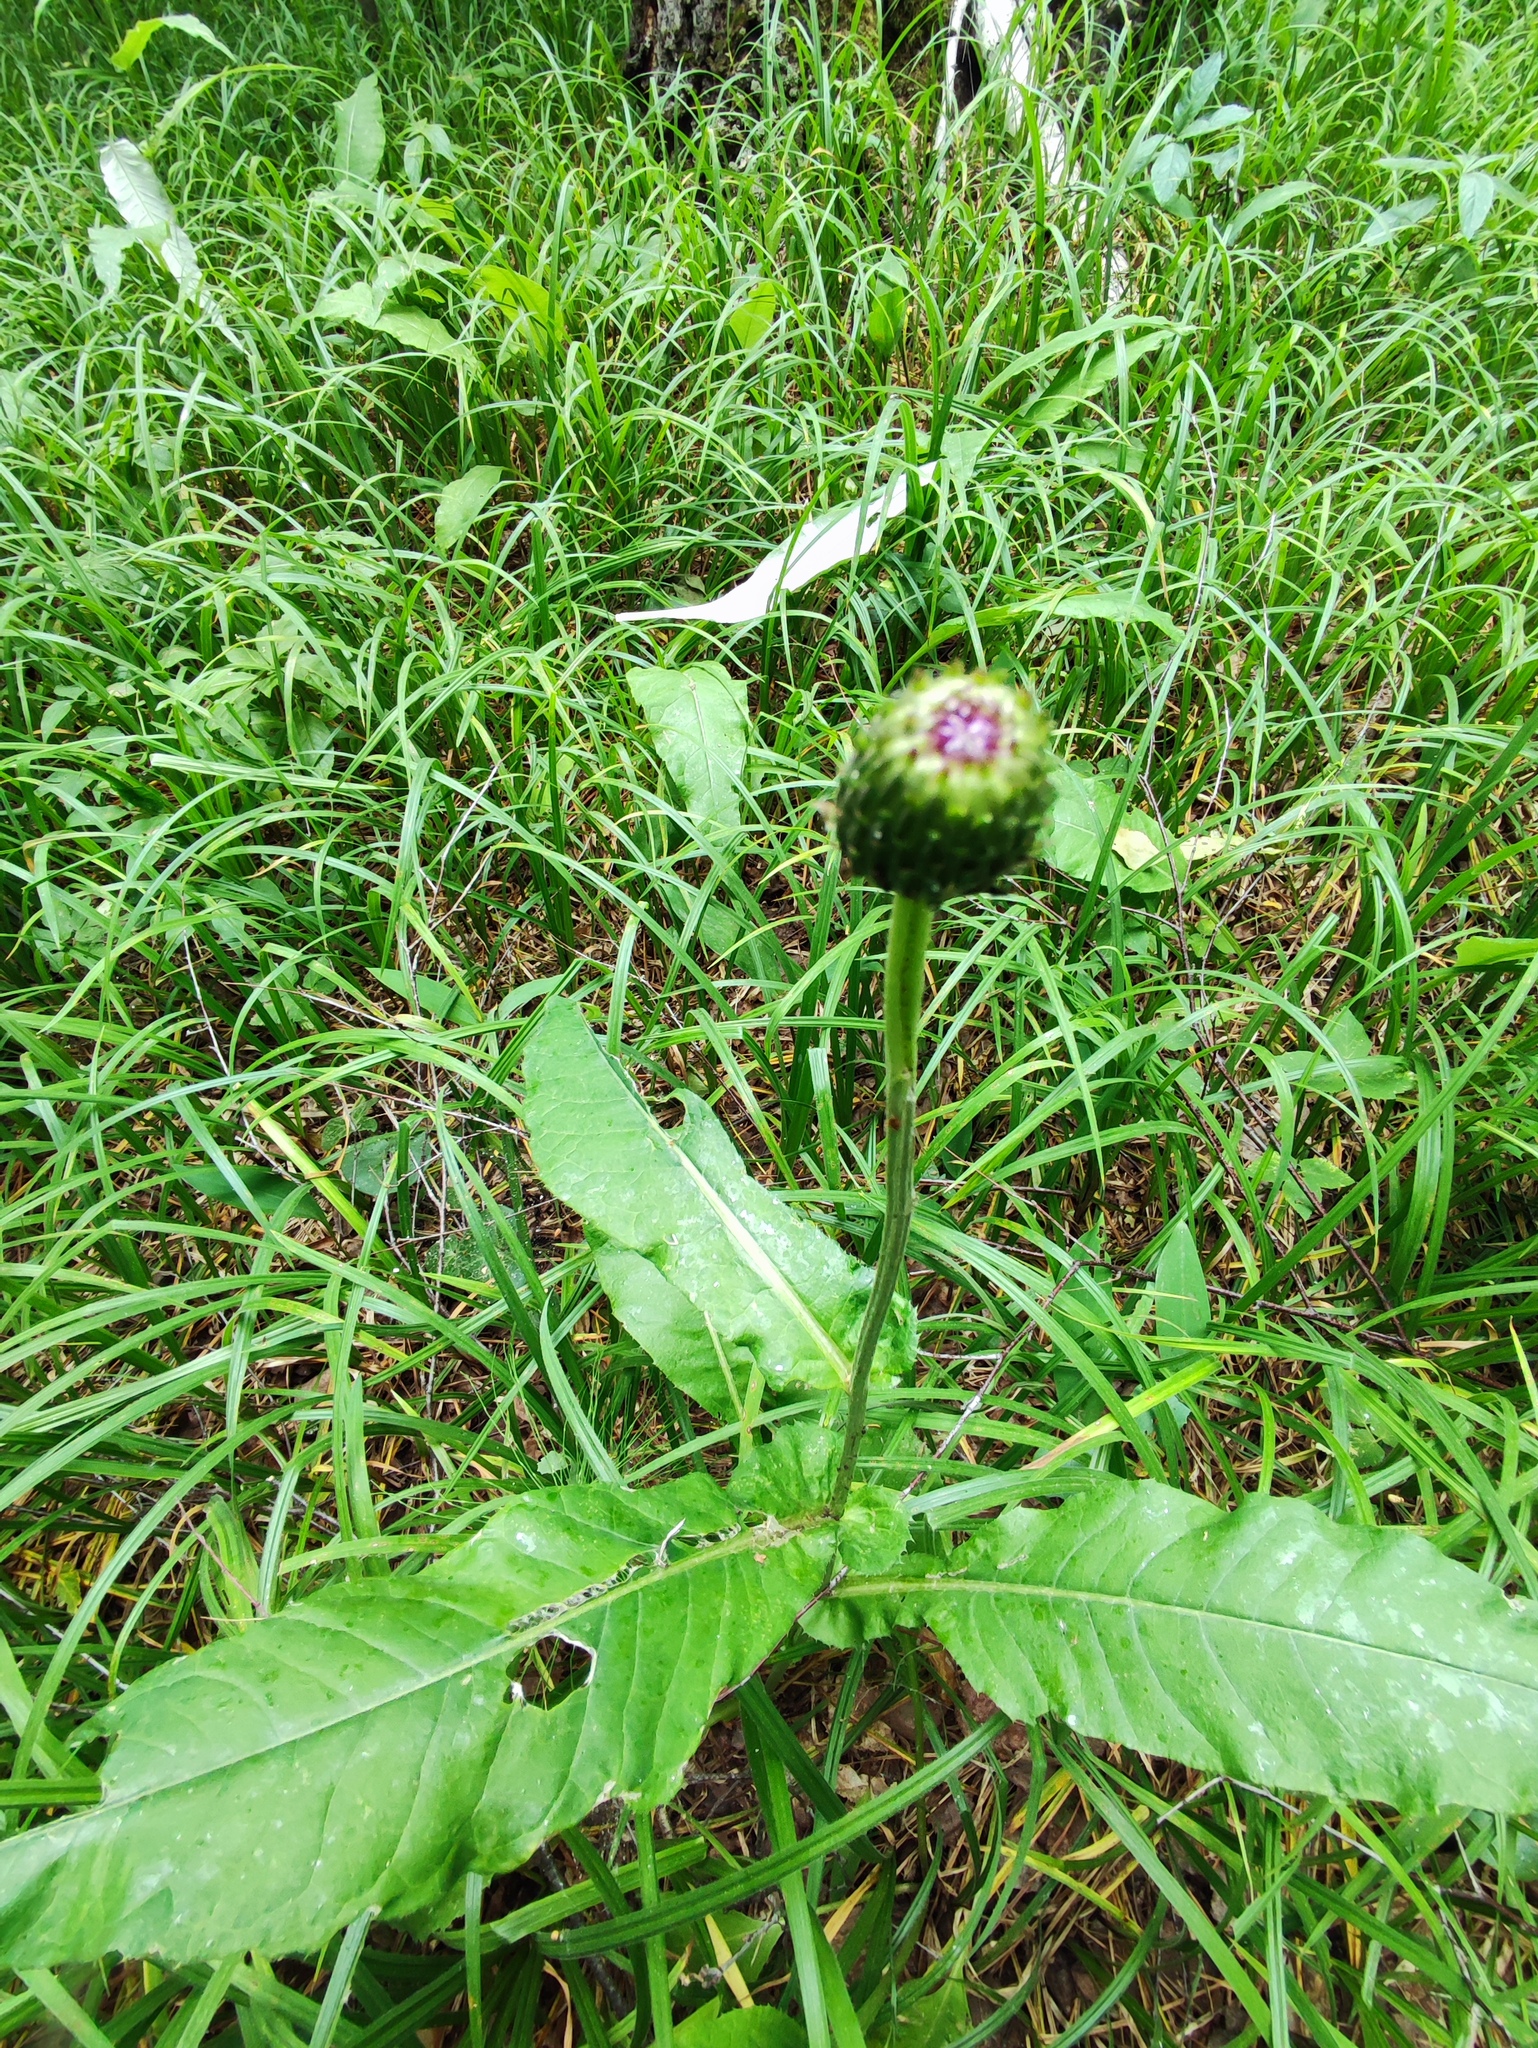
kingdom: Plantae
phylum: Tracheophyta
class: Magnoliopsida
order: Asterales
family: Asteraceae
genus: Cirsium
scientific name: Cirsium heterophyllum
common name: Melancholy thistle
